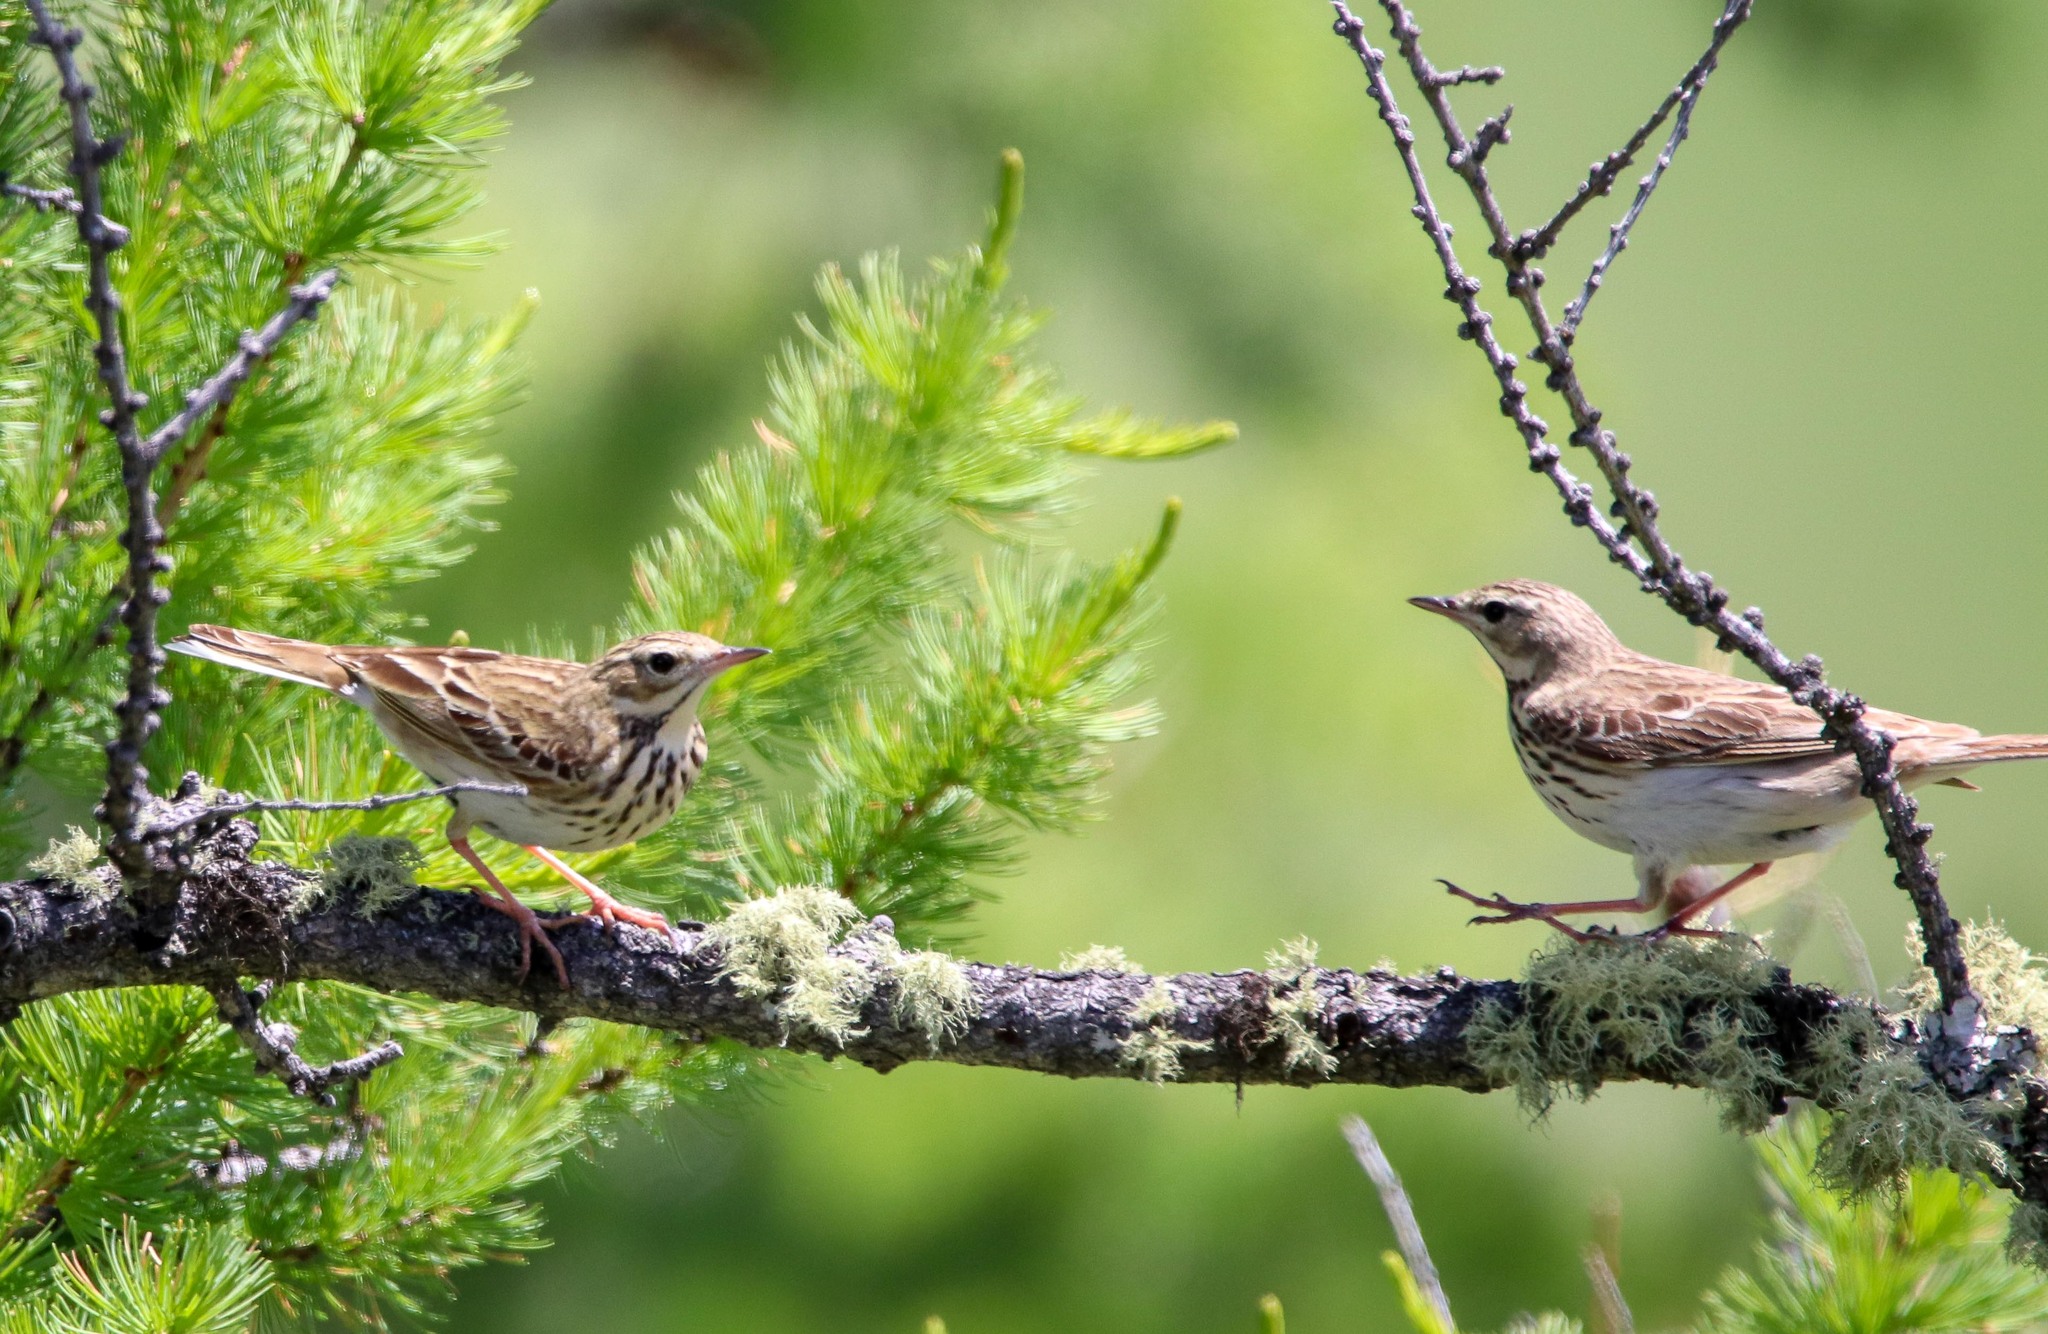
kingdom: Animalia
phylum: Chordata
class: Aves
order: Passeriformes
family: Motacillidae
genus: Anthus
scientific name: Anthus trivialis
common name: Tree pipit
